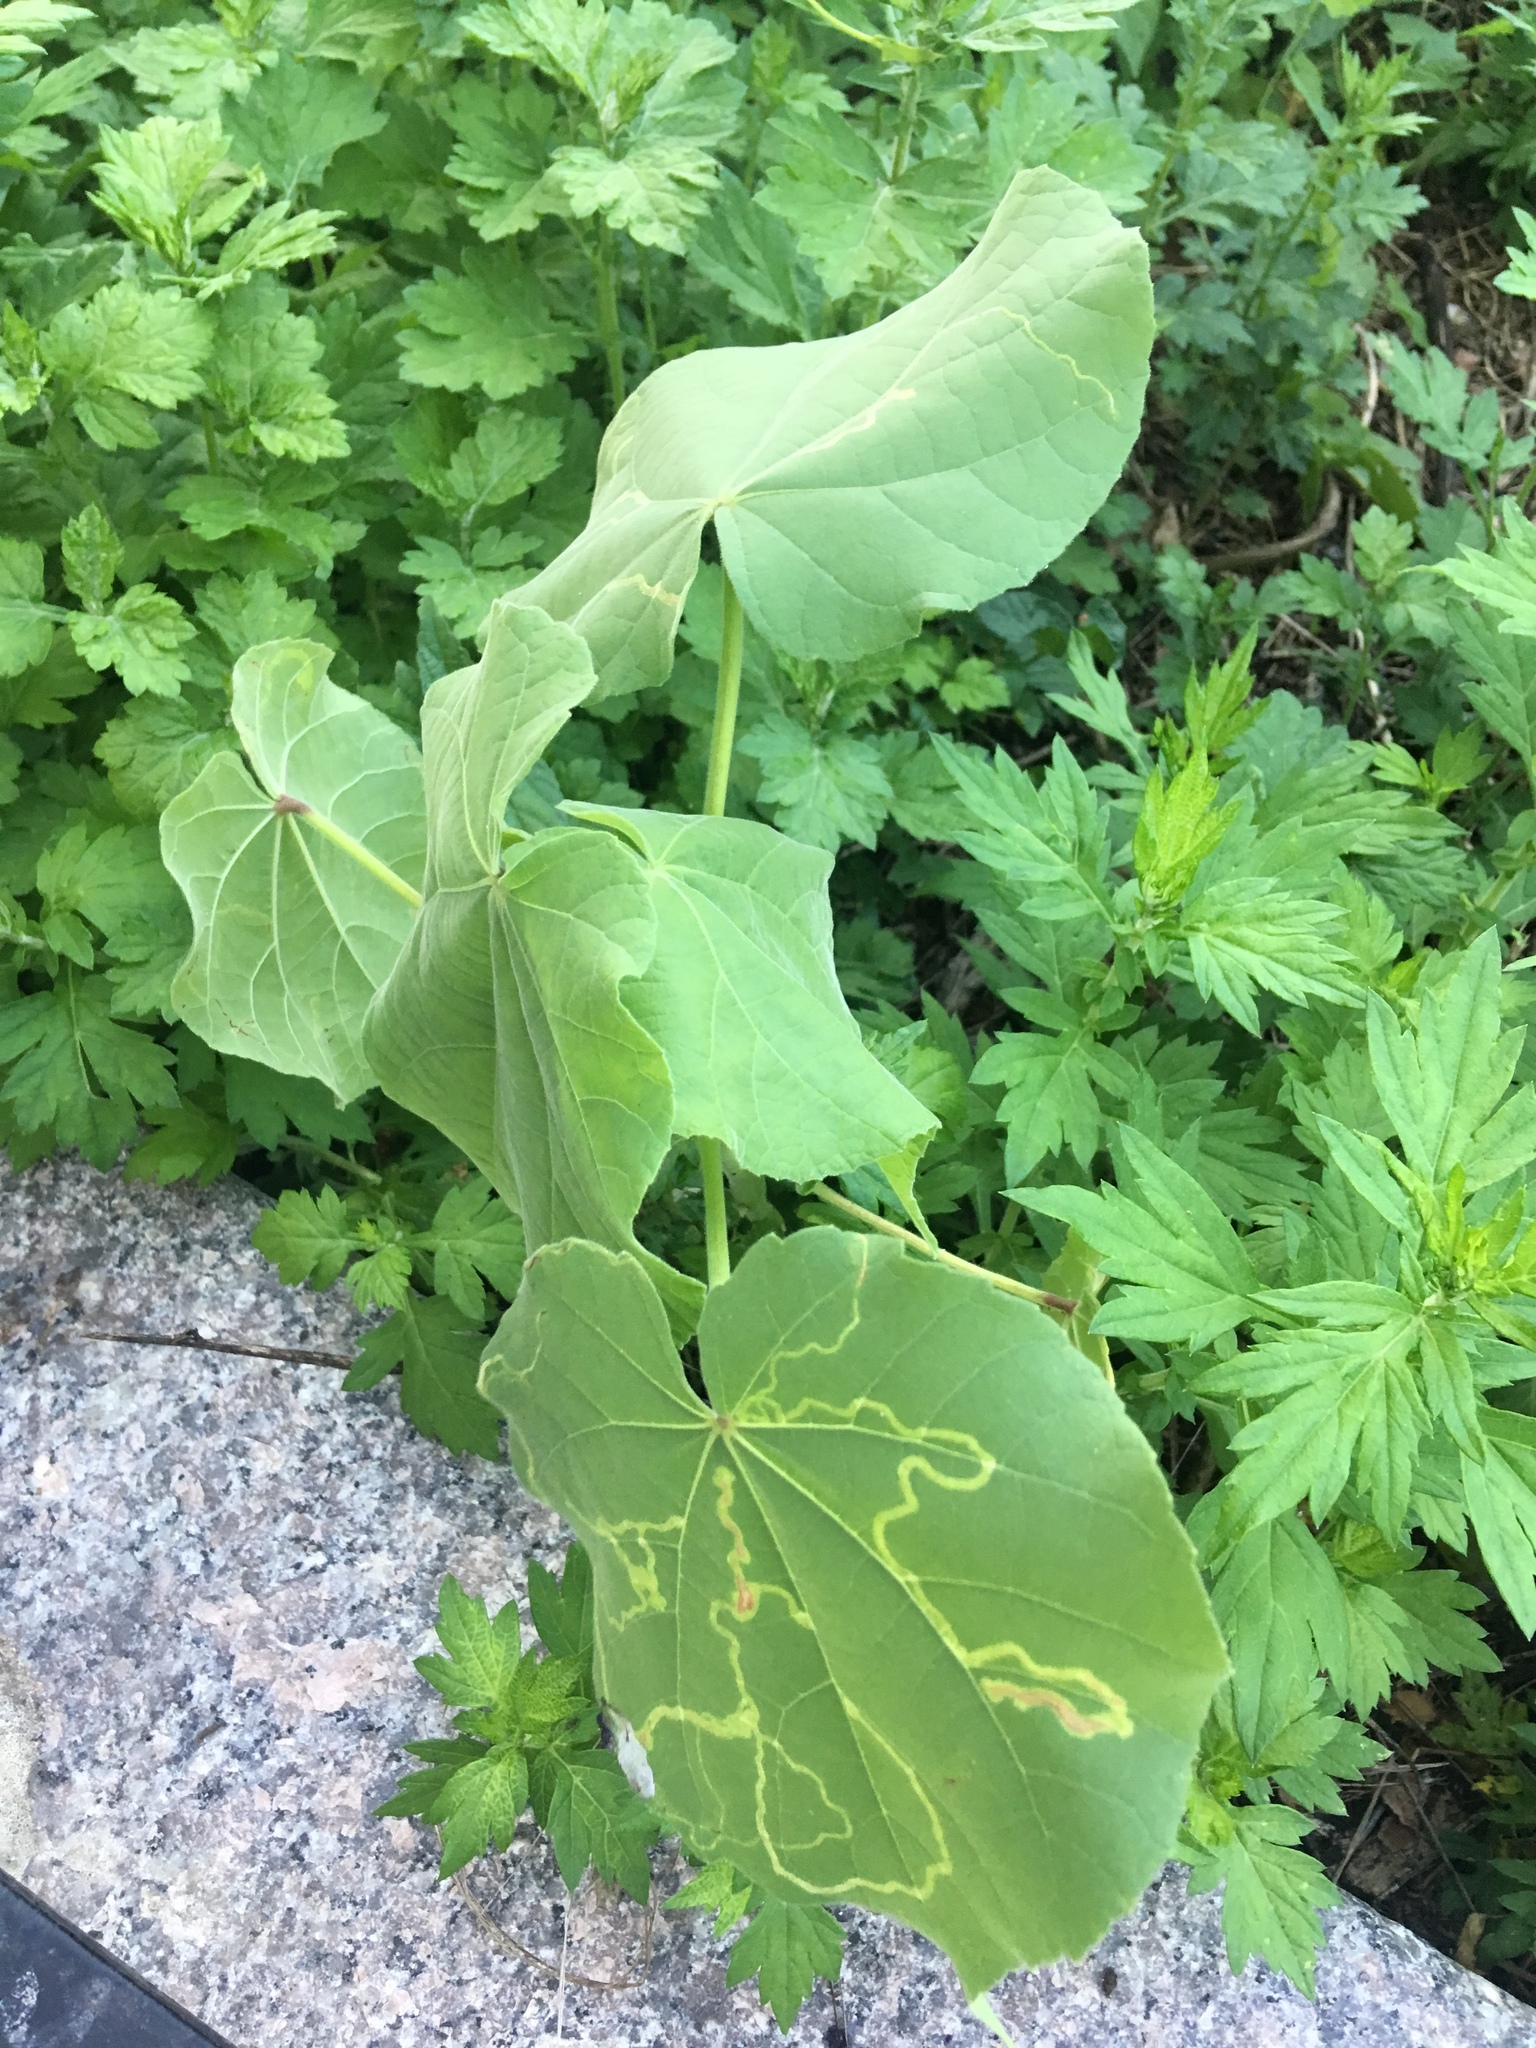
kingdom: Plantae
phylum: Tracheophyta
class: Magnoliopsida
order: Malvales
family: Malvaceae
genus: Abutilon
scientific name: Abutilon theophrasti
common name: Velvetleaf
